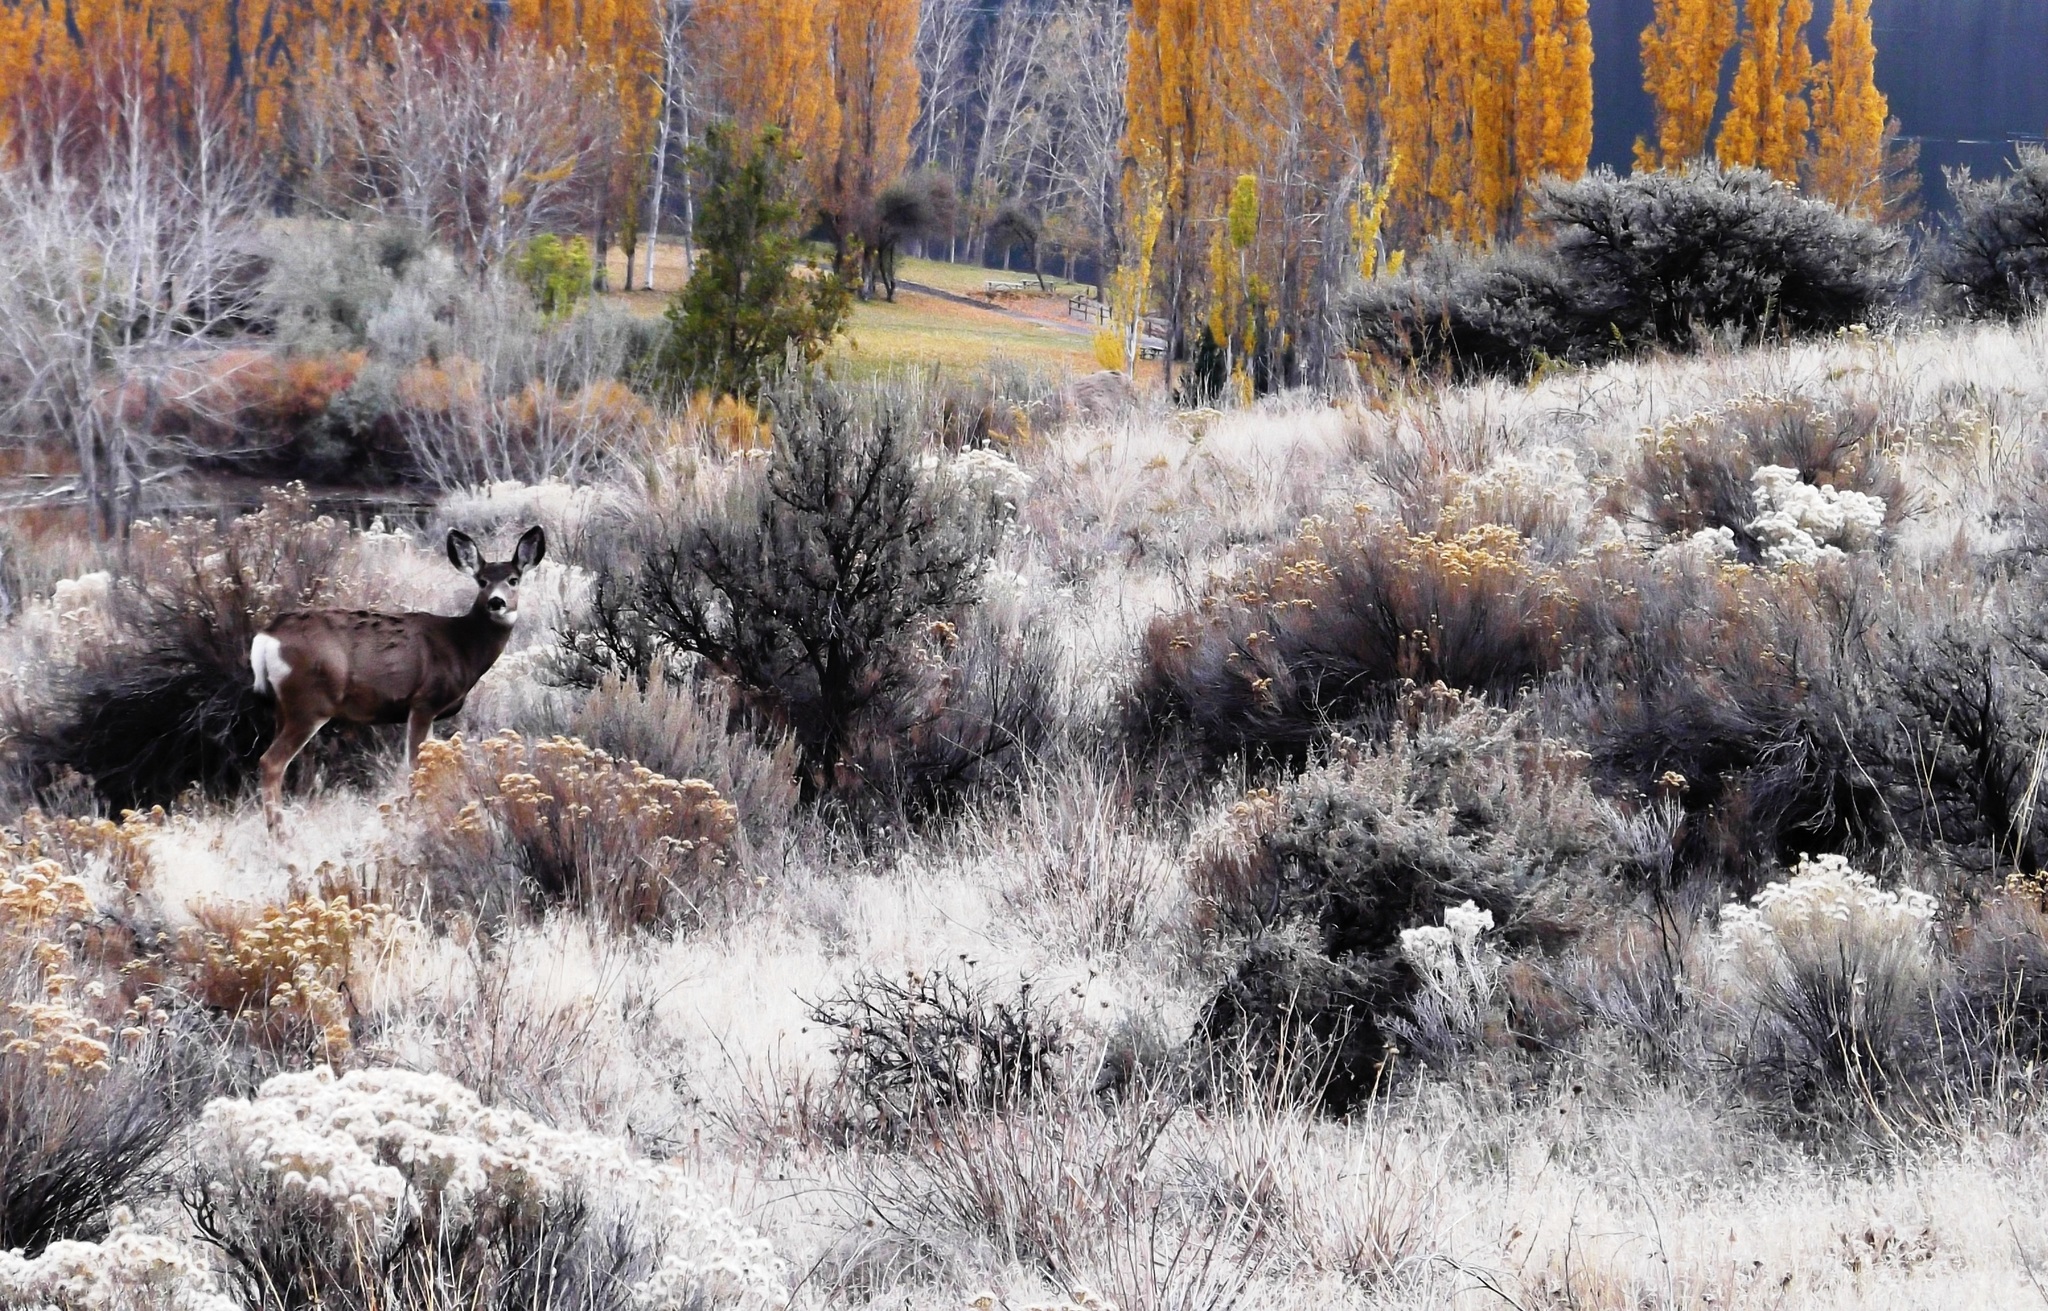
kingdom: Animalia
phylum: Chordata
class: Mammalia
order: Artiodactyla
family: Cervidae
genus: Odocoileus
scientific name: Odocoileus hemionus
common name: Mule deer
